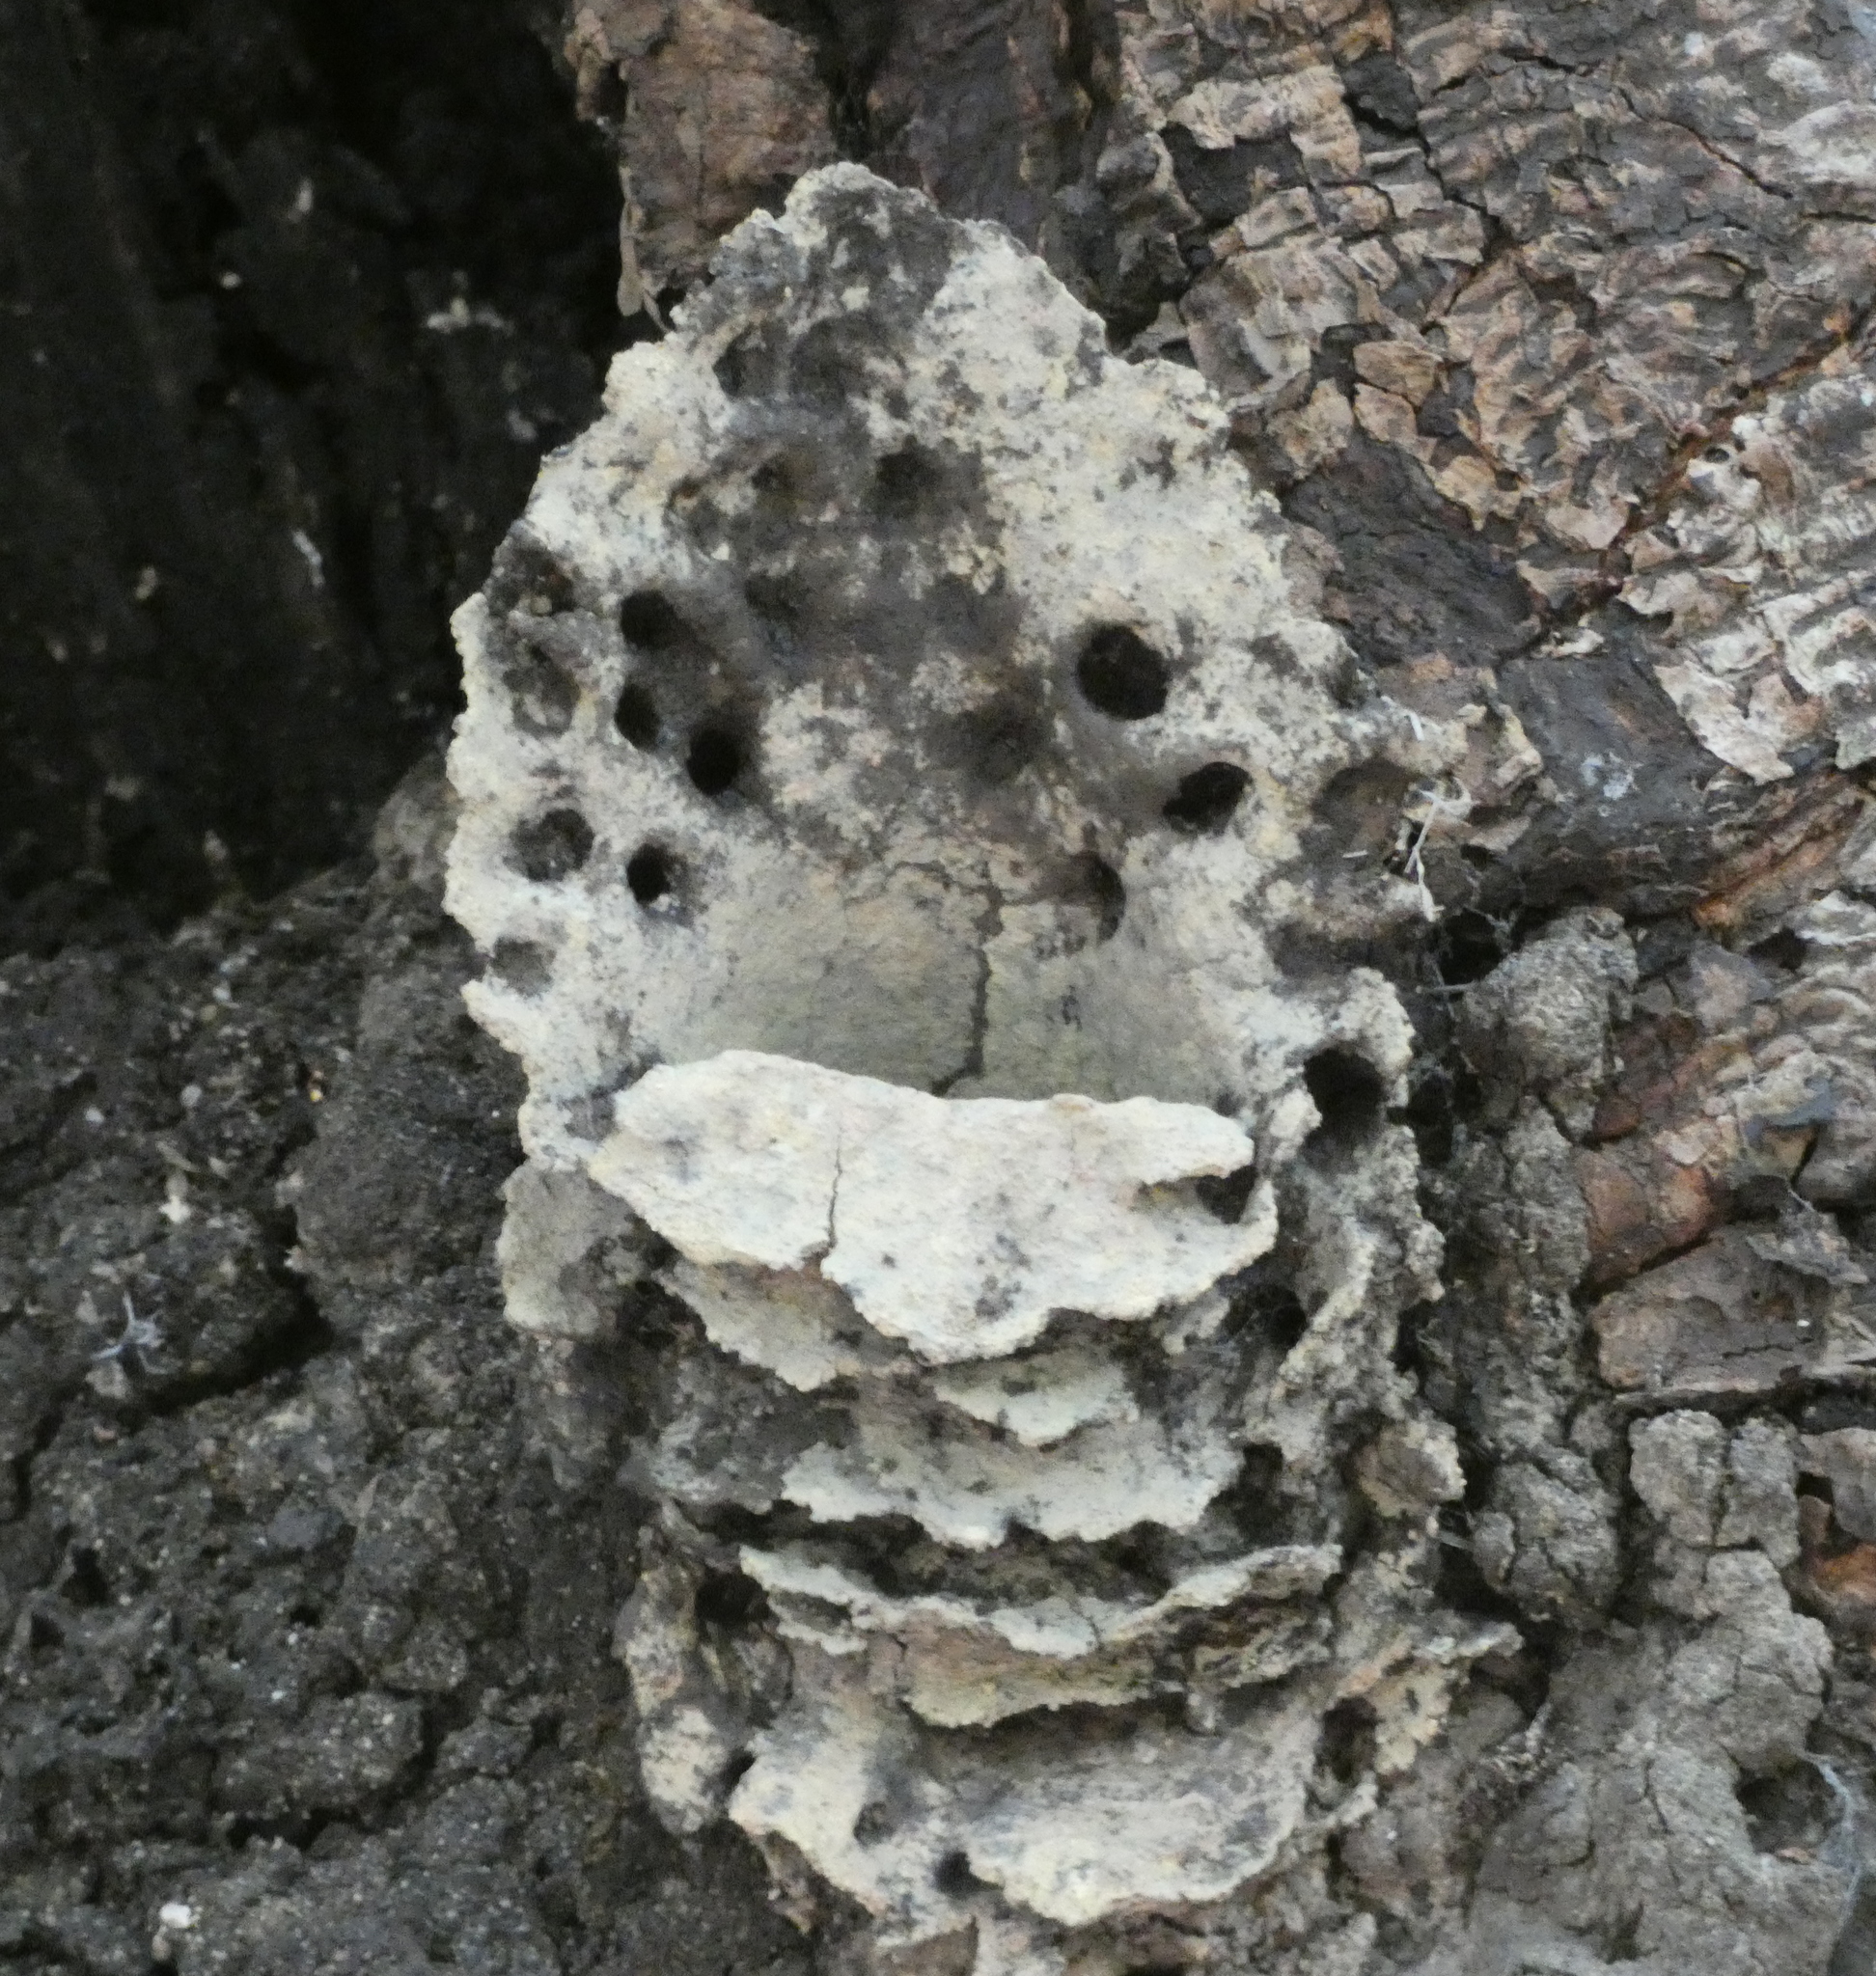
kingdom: Animalia
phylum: Arthropoda
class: Insecta
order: Hymenoptera
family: Apidae
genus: Partamona
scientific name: Partamona helleri
